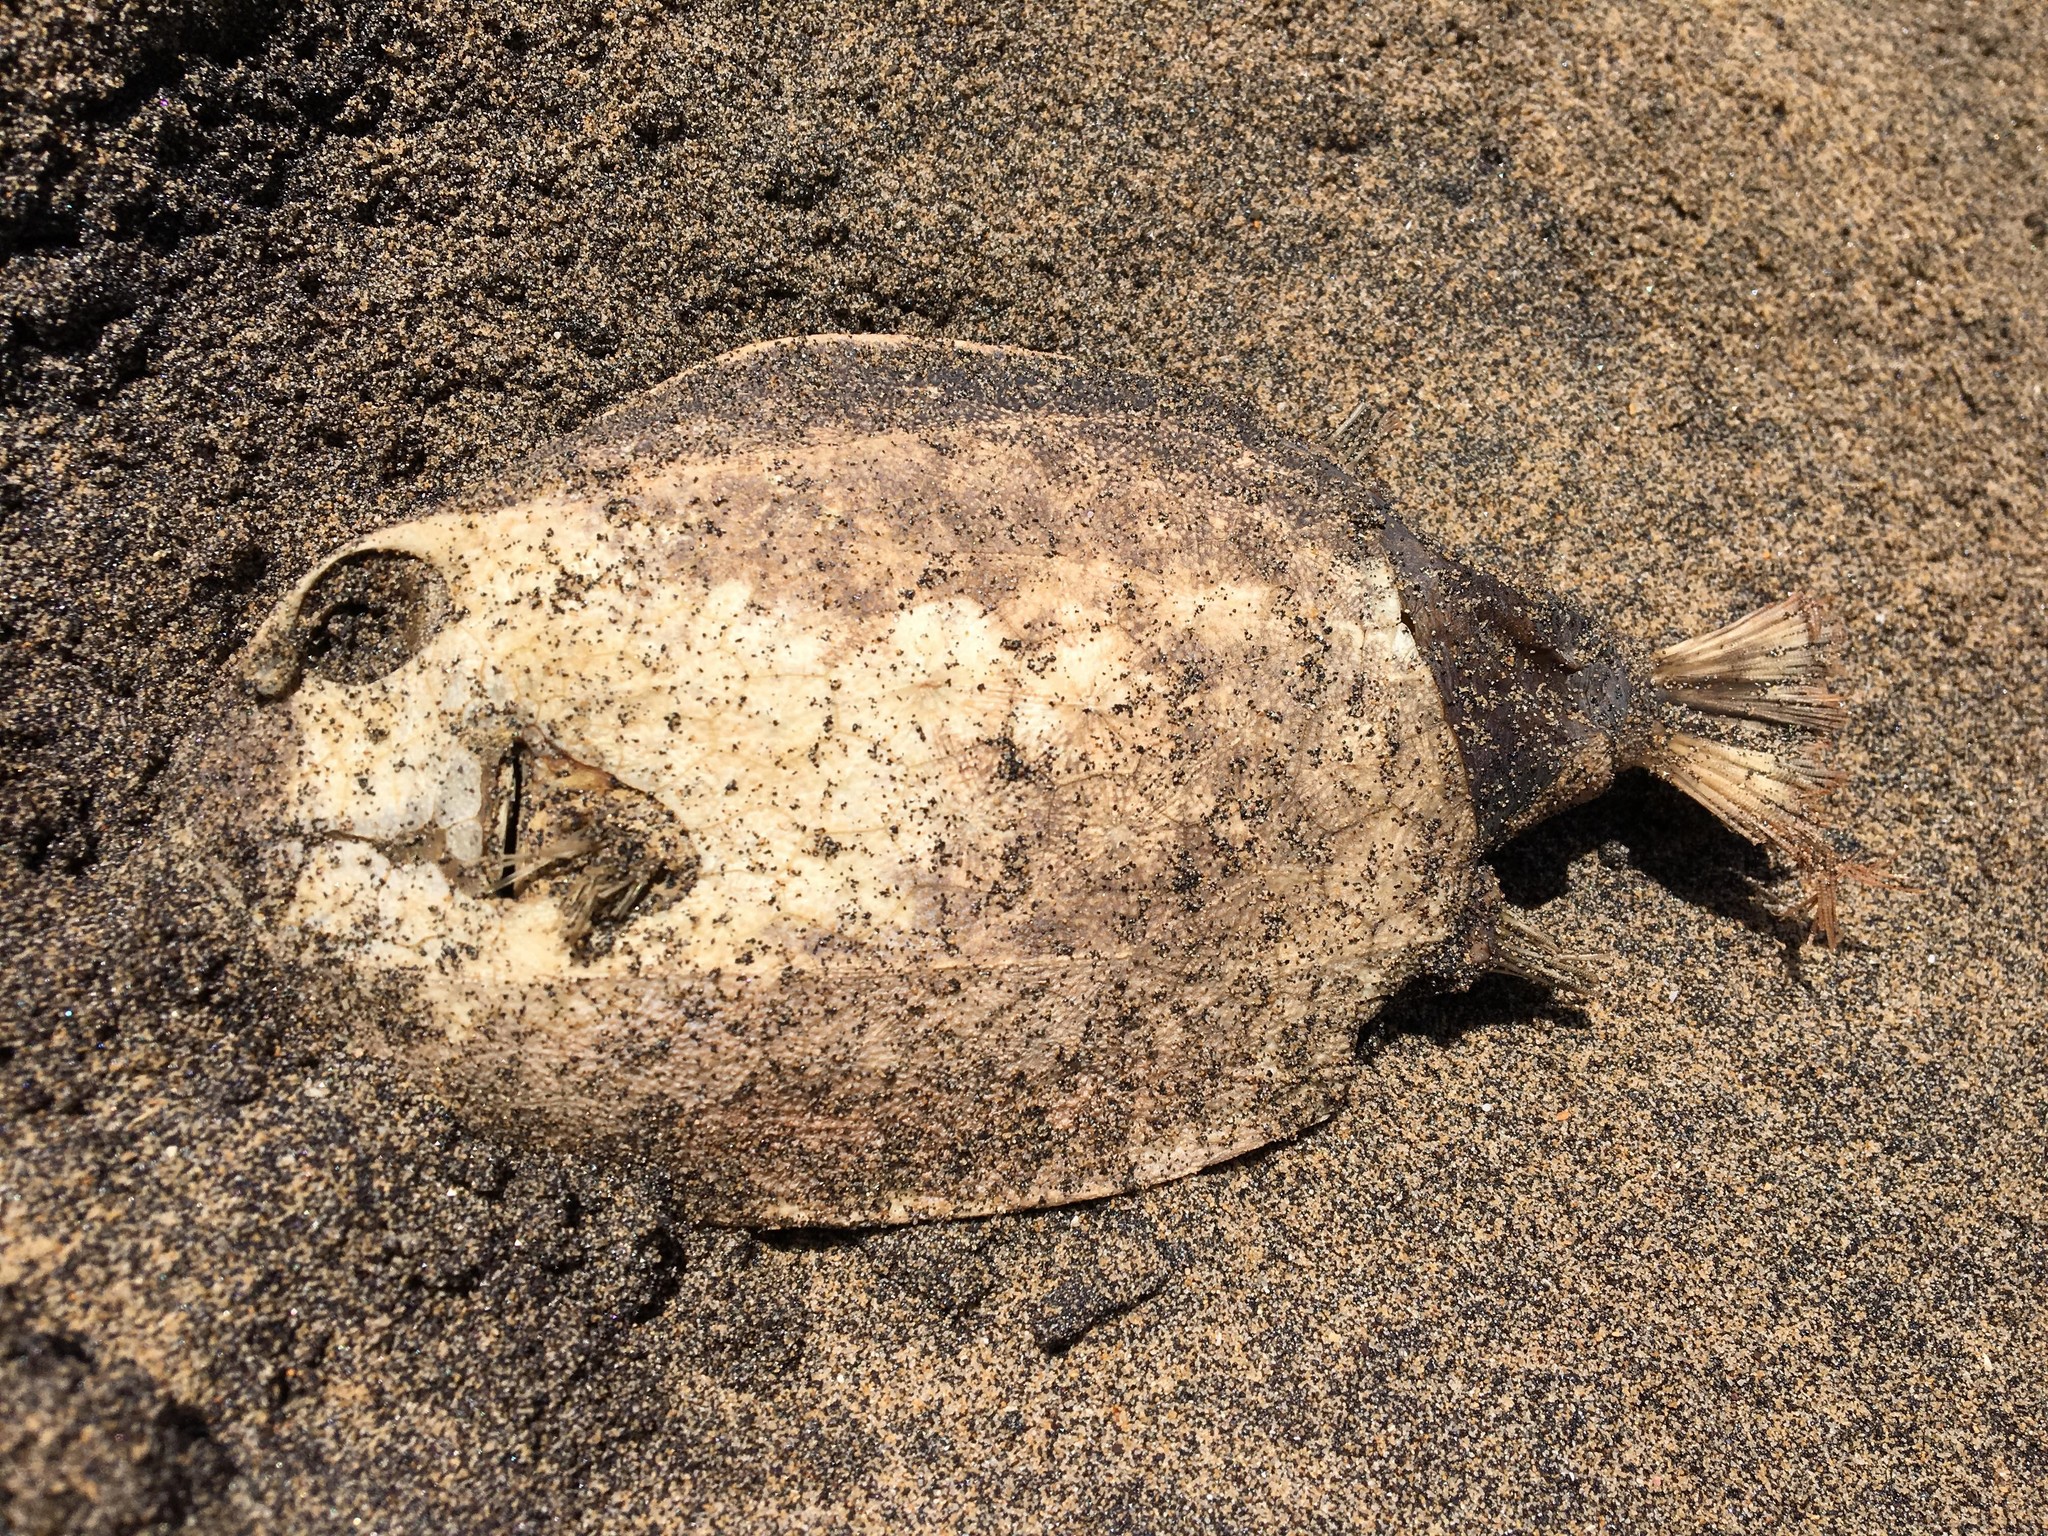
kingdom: Animalia
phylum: Chordata
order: Tetraodontiformes
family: Aracanidae
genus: Anoplocapros
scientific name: Anoplocapros inermis
